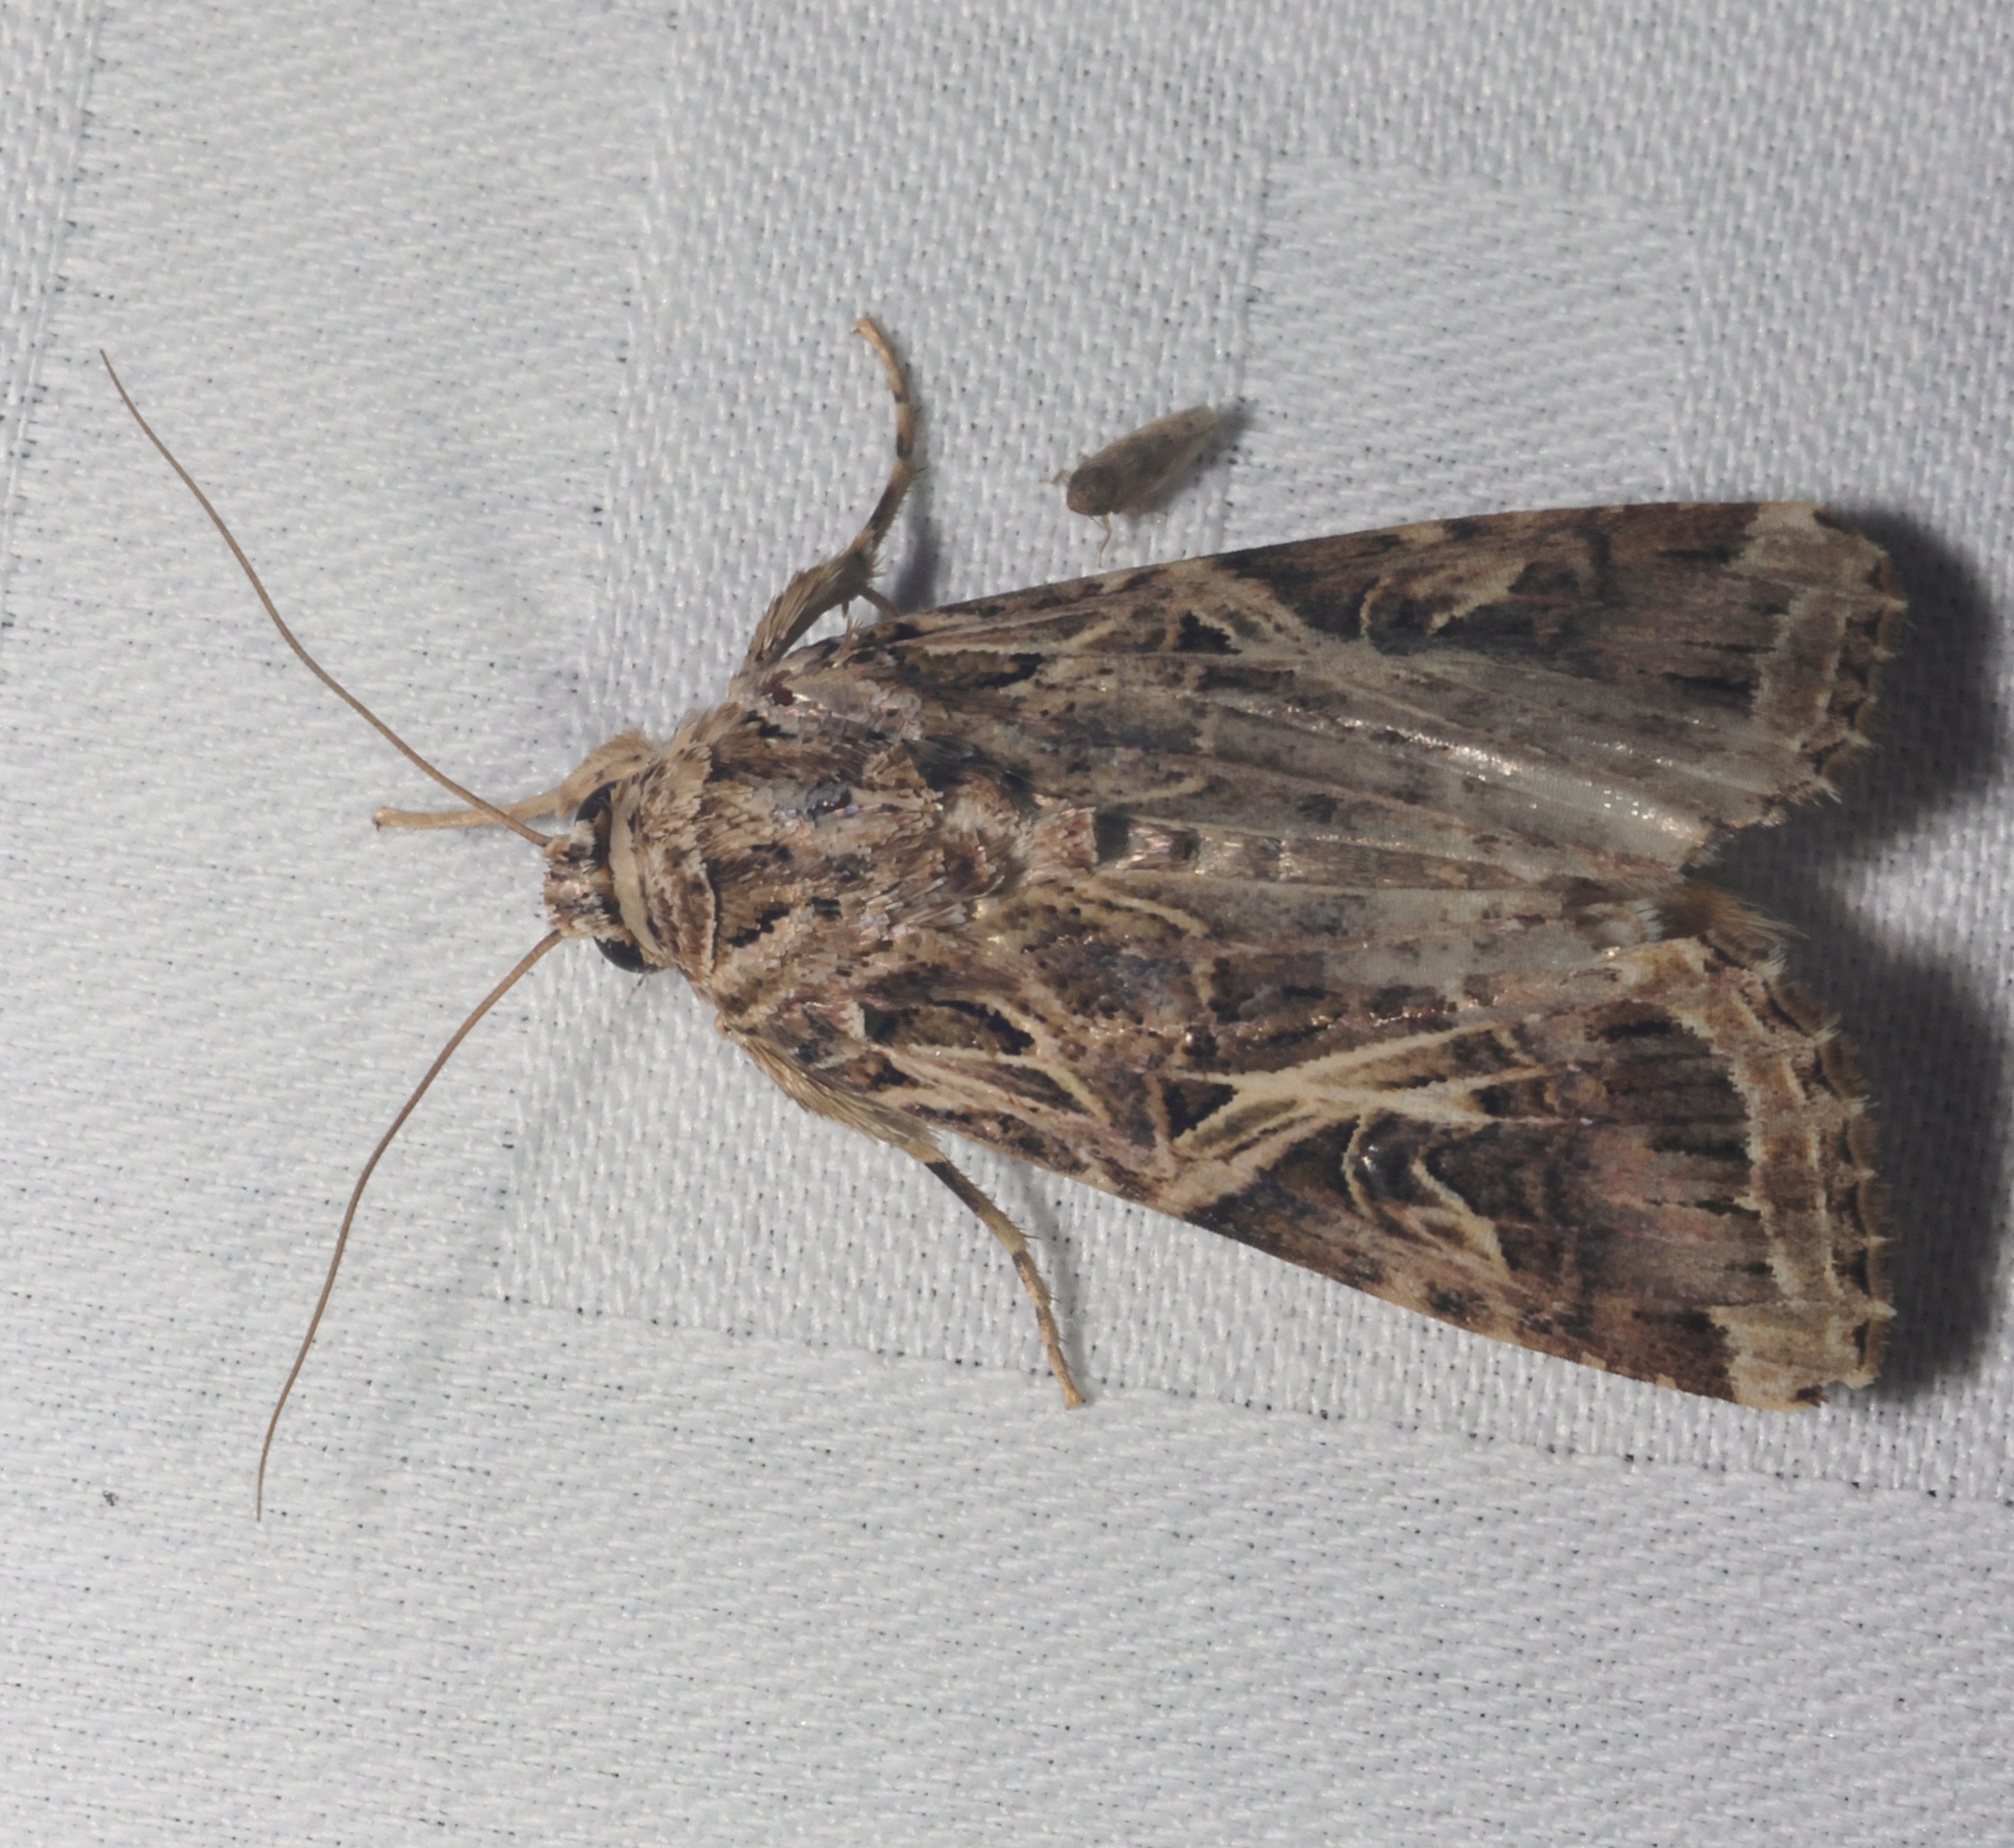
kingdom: Animalia
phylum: Arthropoda
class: Insecta
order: Lepidoptera
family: Noctuidae
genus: Spodoptera
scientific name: Spodoptera litura
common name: Asian cotton leafworm
